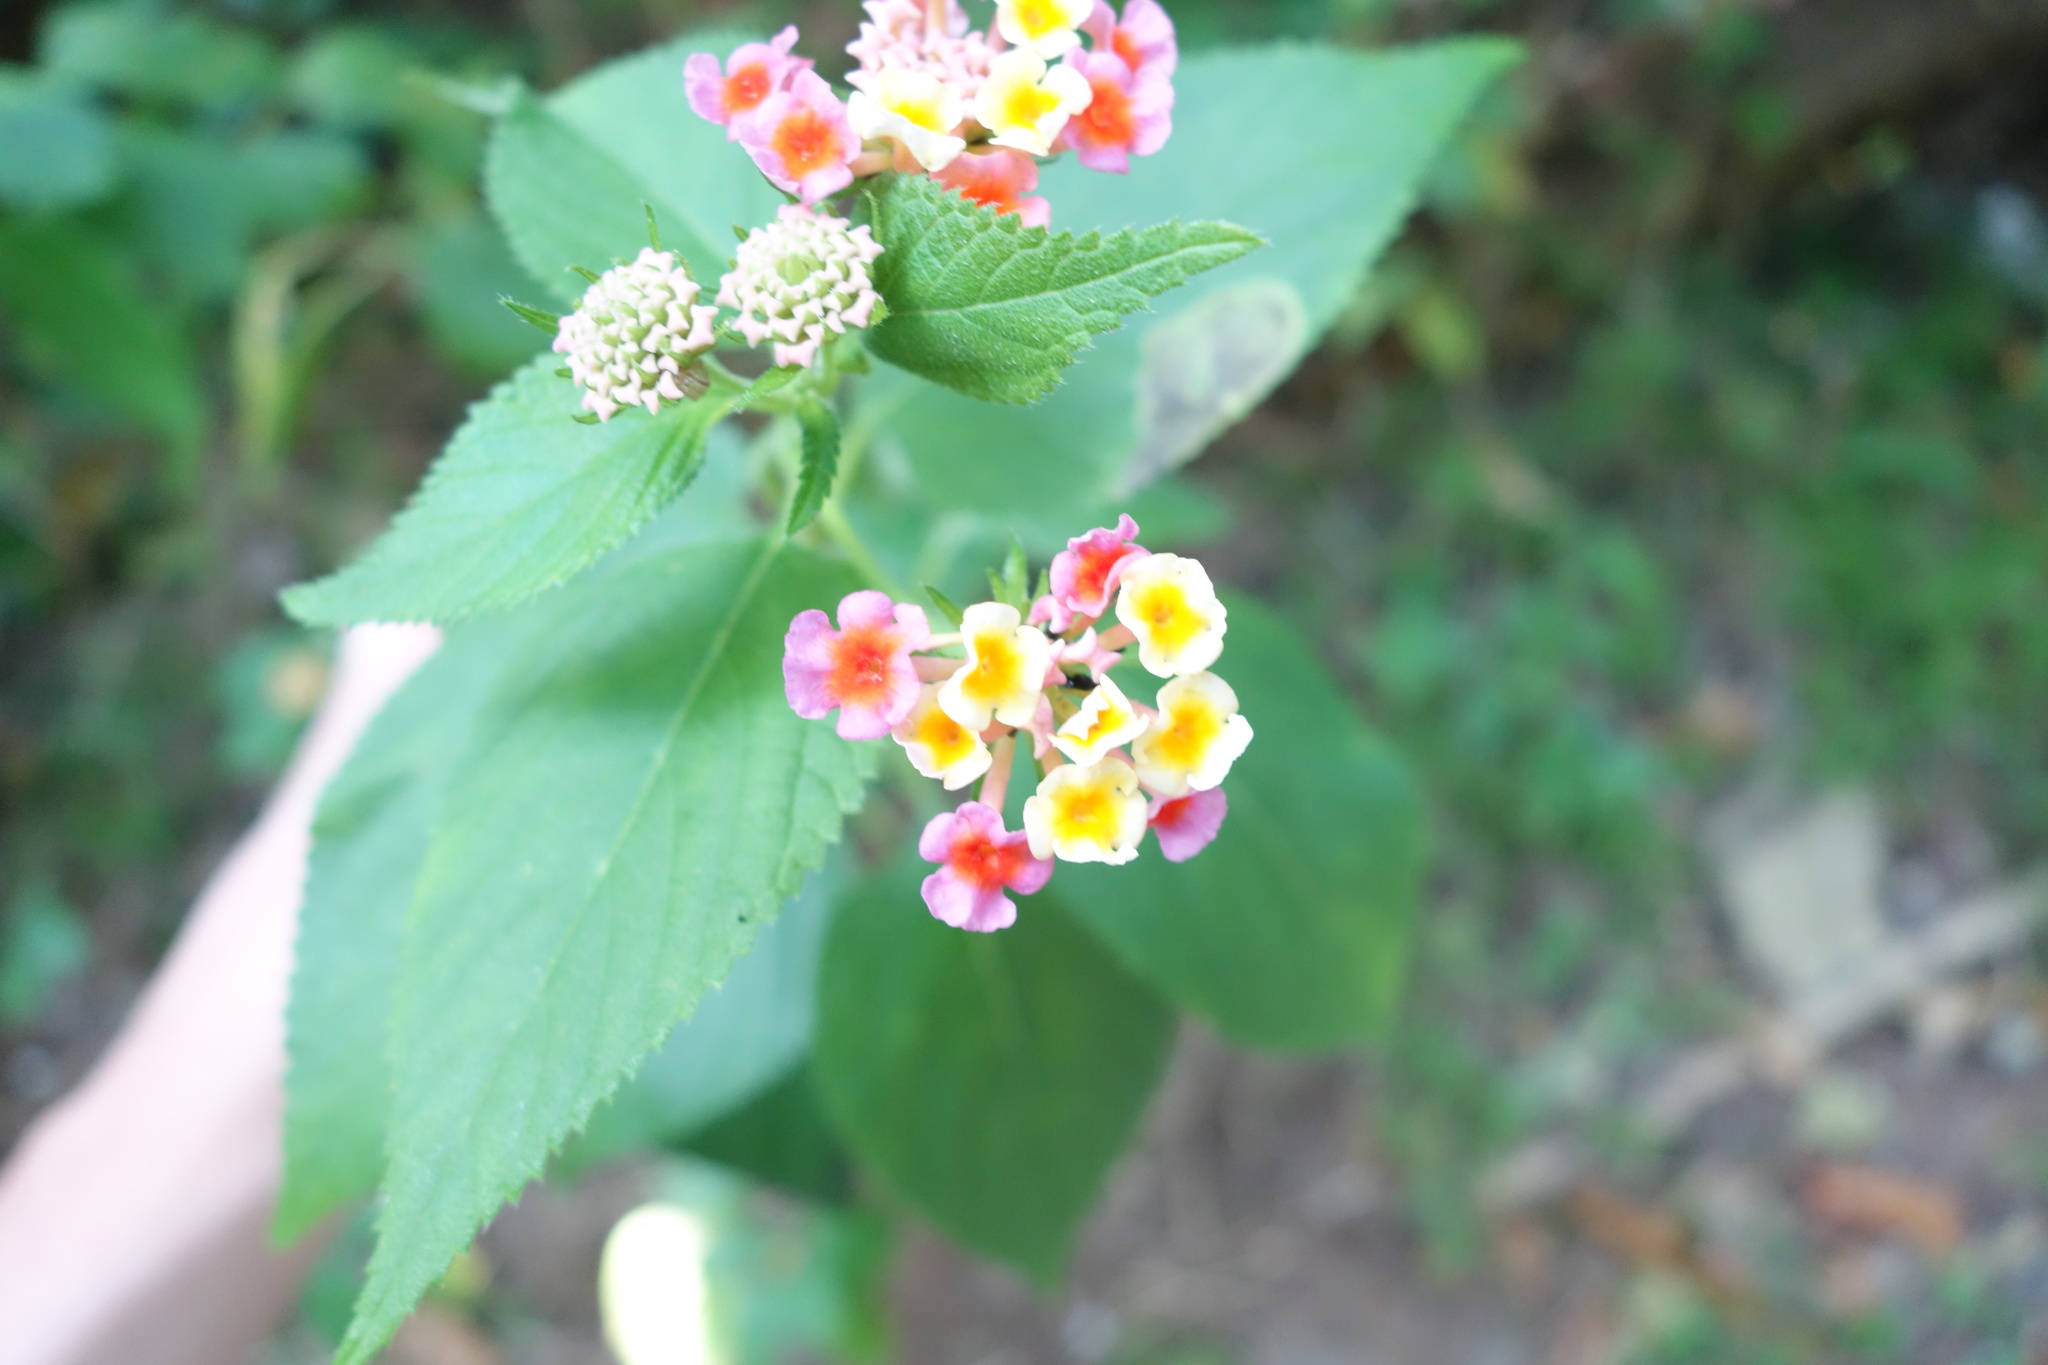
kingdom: Plantae
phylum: Tracheophyta
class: Magnoliopsida
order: Lamiales
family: Verbenaceae
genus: Lantana
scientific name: Lantana camara
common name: Lantana
